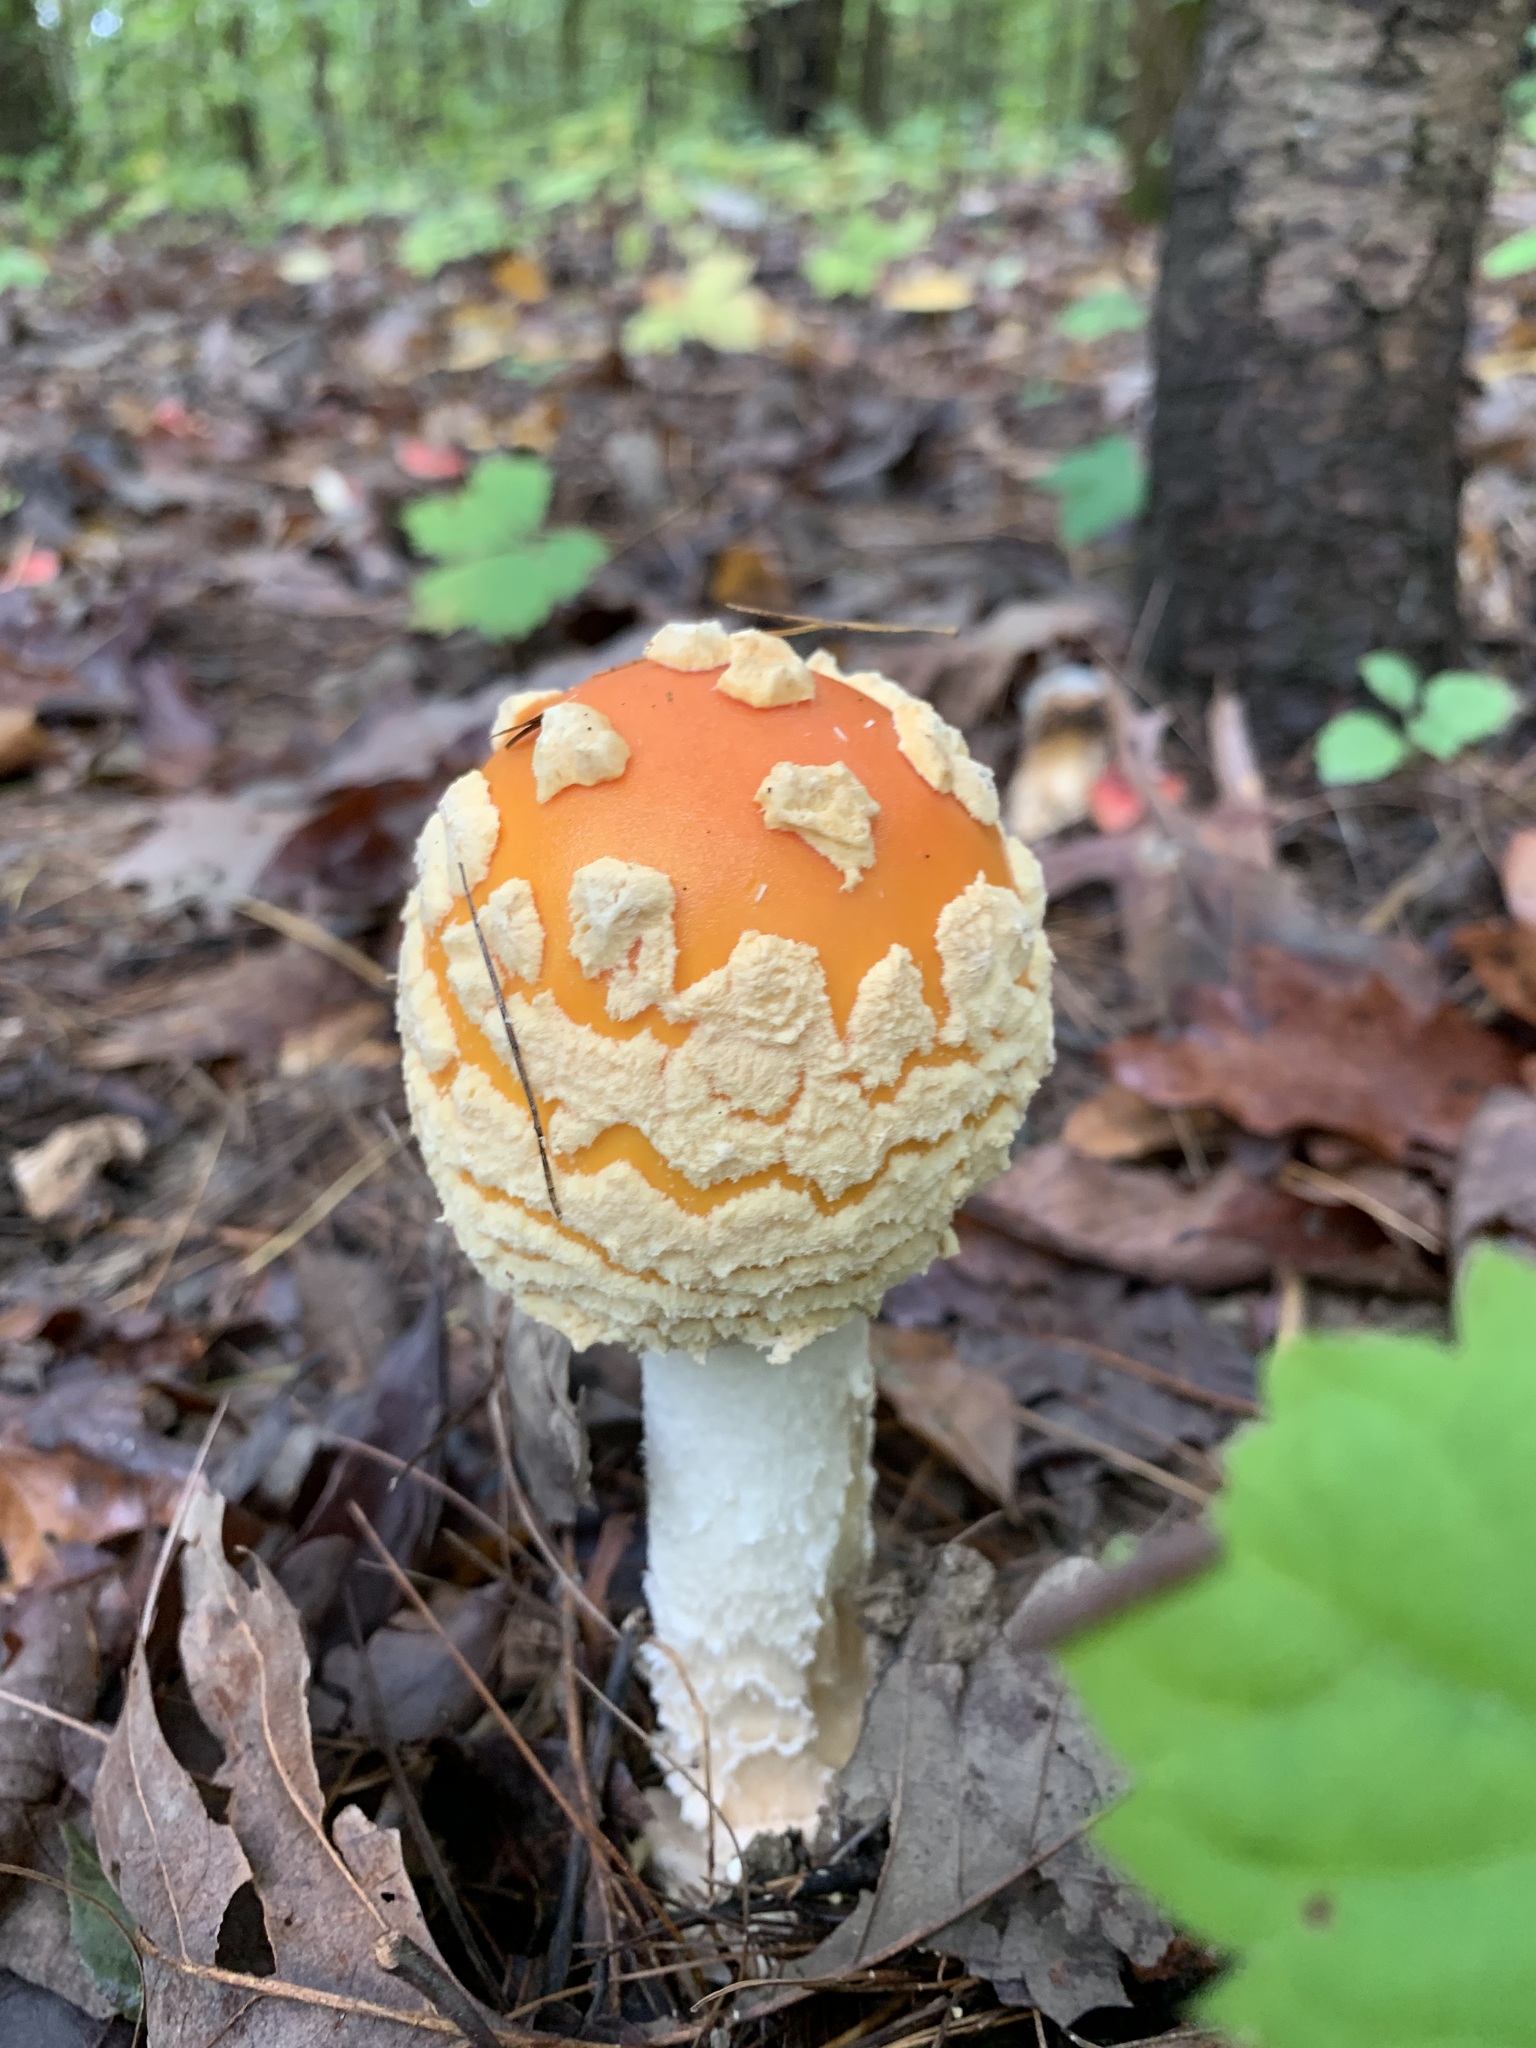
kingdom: Fungi
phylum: Basidiomycota
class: Agaricomycetes
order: Agaricales
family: Amanitaceae
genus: Amanita
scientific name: Amanita muscaria
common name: Fly agaric
